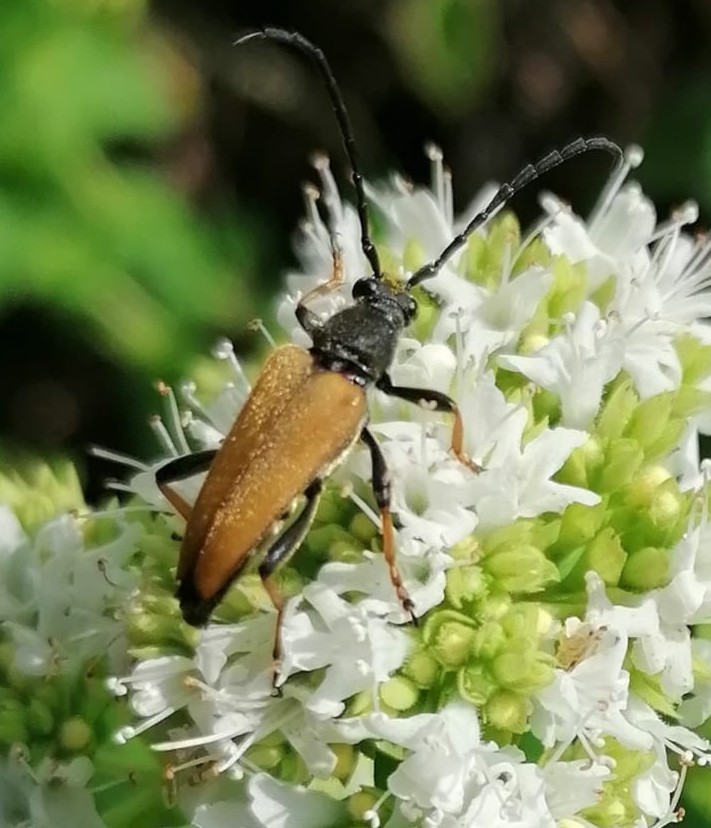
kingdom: Animalia
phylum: Arthropoda
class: Insecta
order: Coleoptera
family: Cerambycidae
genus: Stictoleptura
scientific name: Stictoleptura rubra
